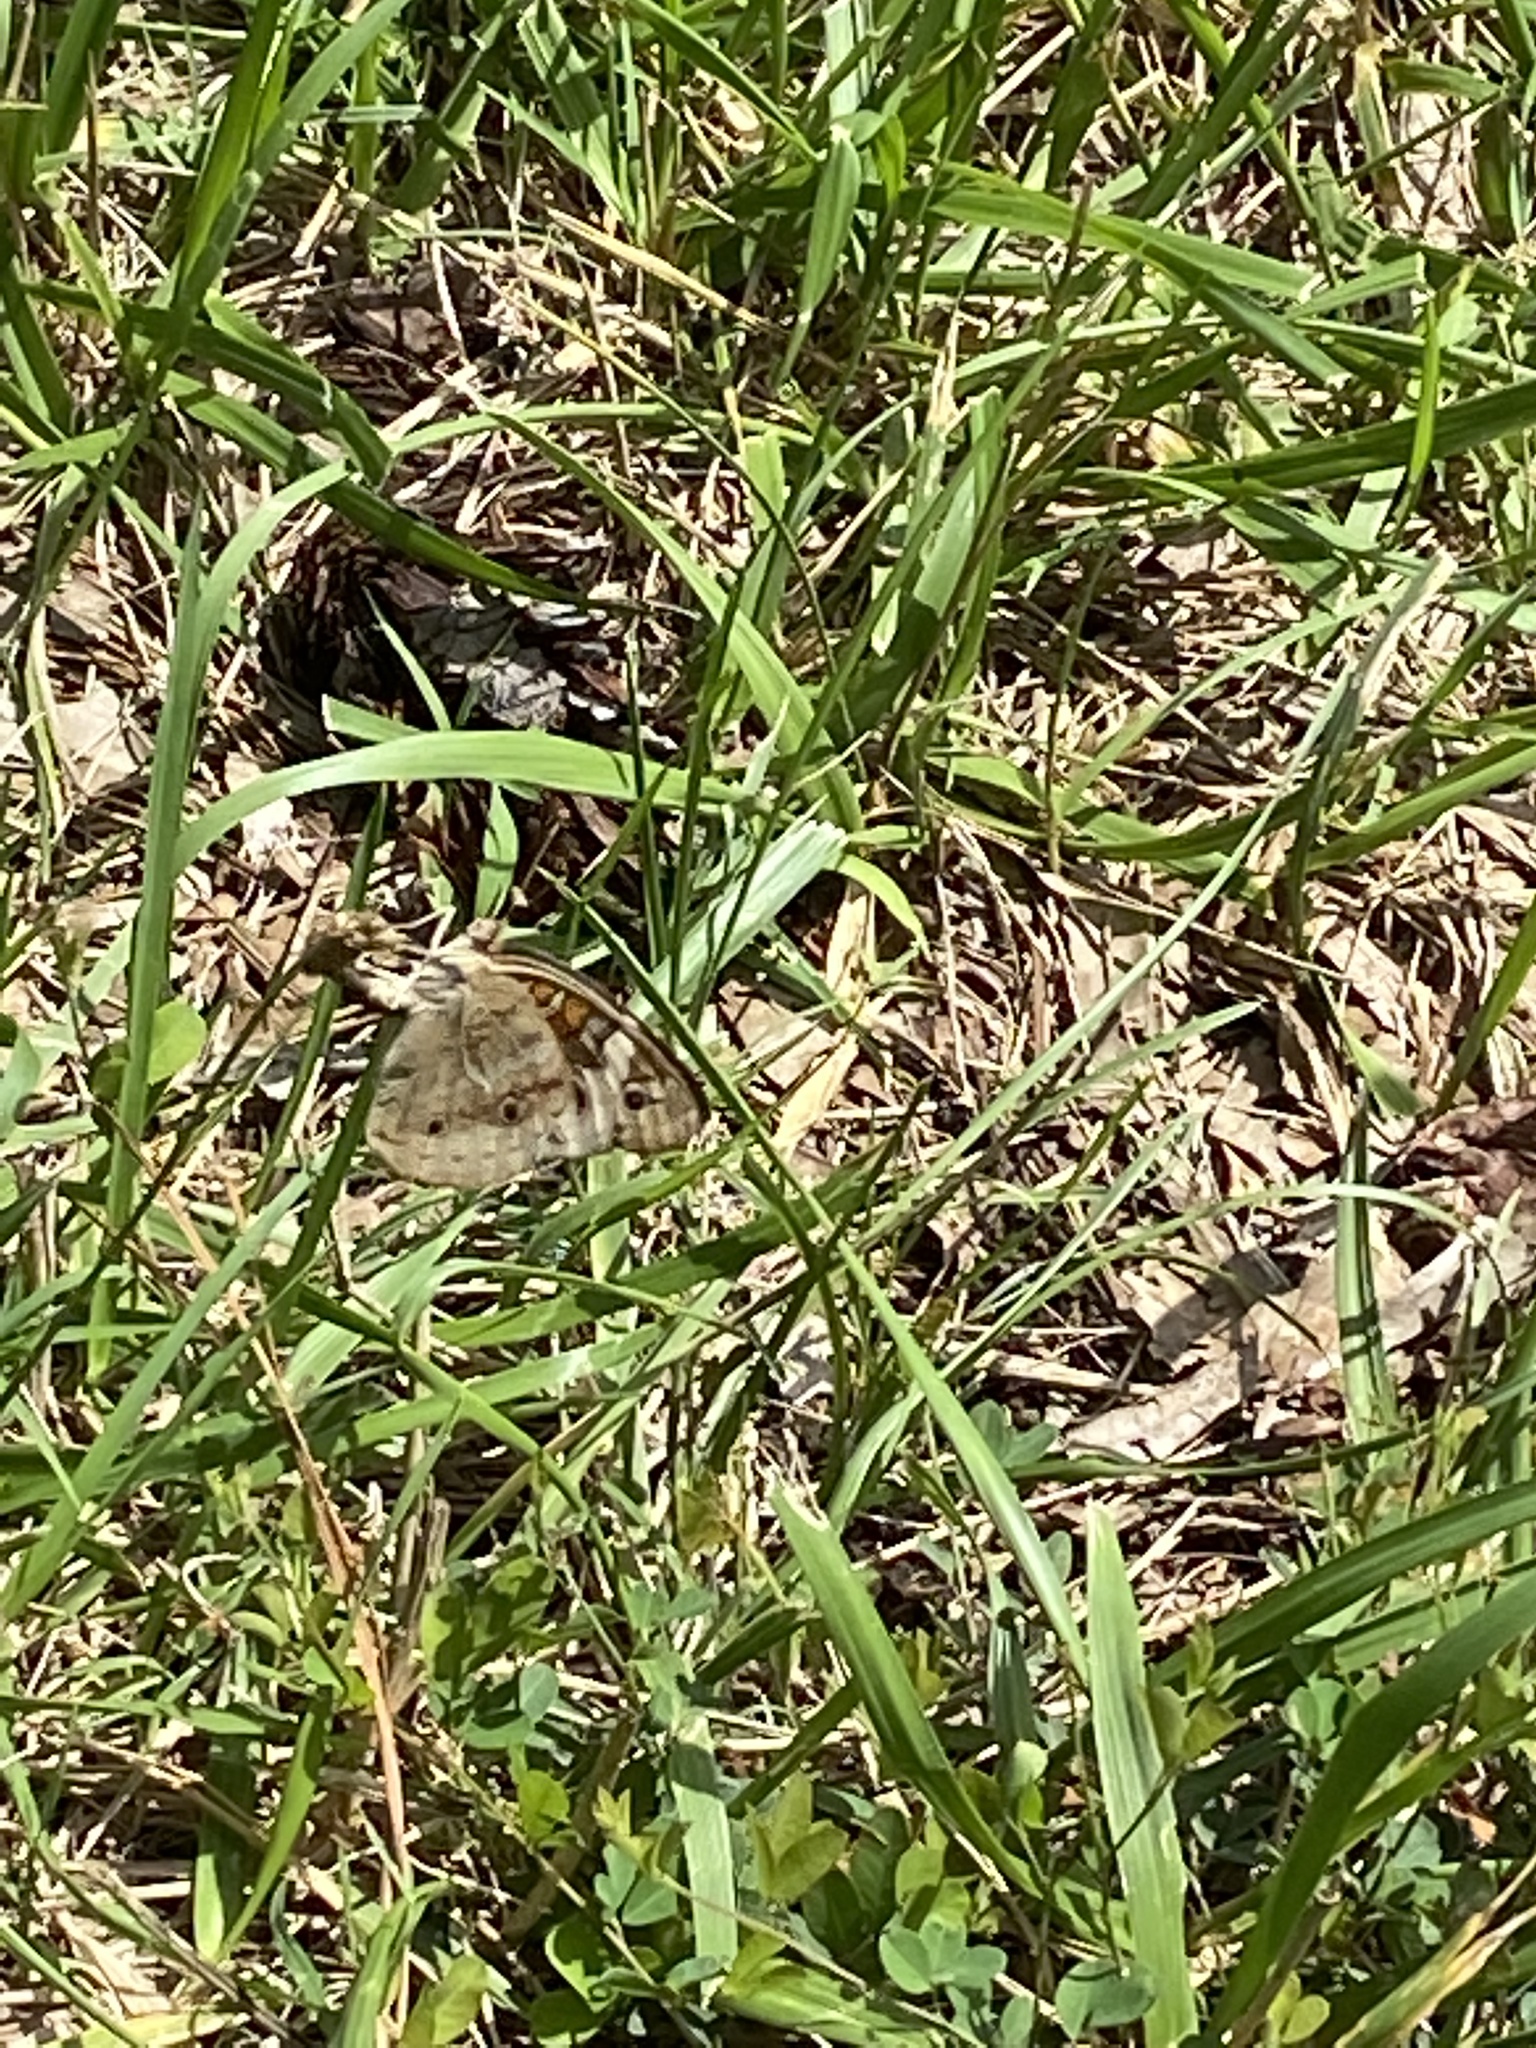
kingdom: Animalia
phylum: Arthropoda
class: Insecta
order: Lepidoptera
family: Nymphalidae
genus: Junonia
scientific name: Junonia coenia
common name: Common buckeye
